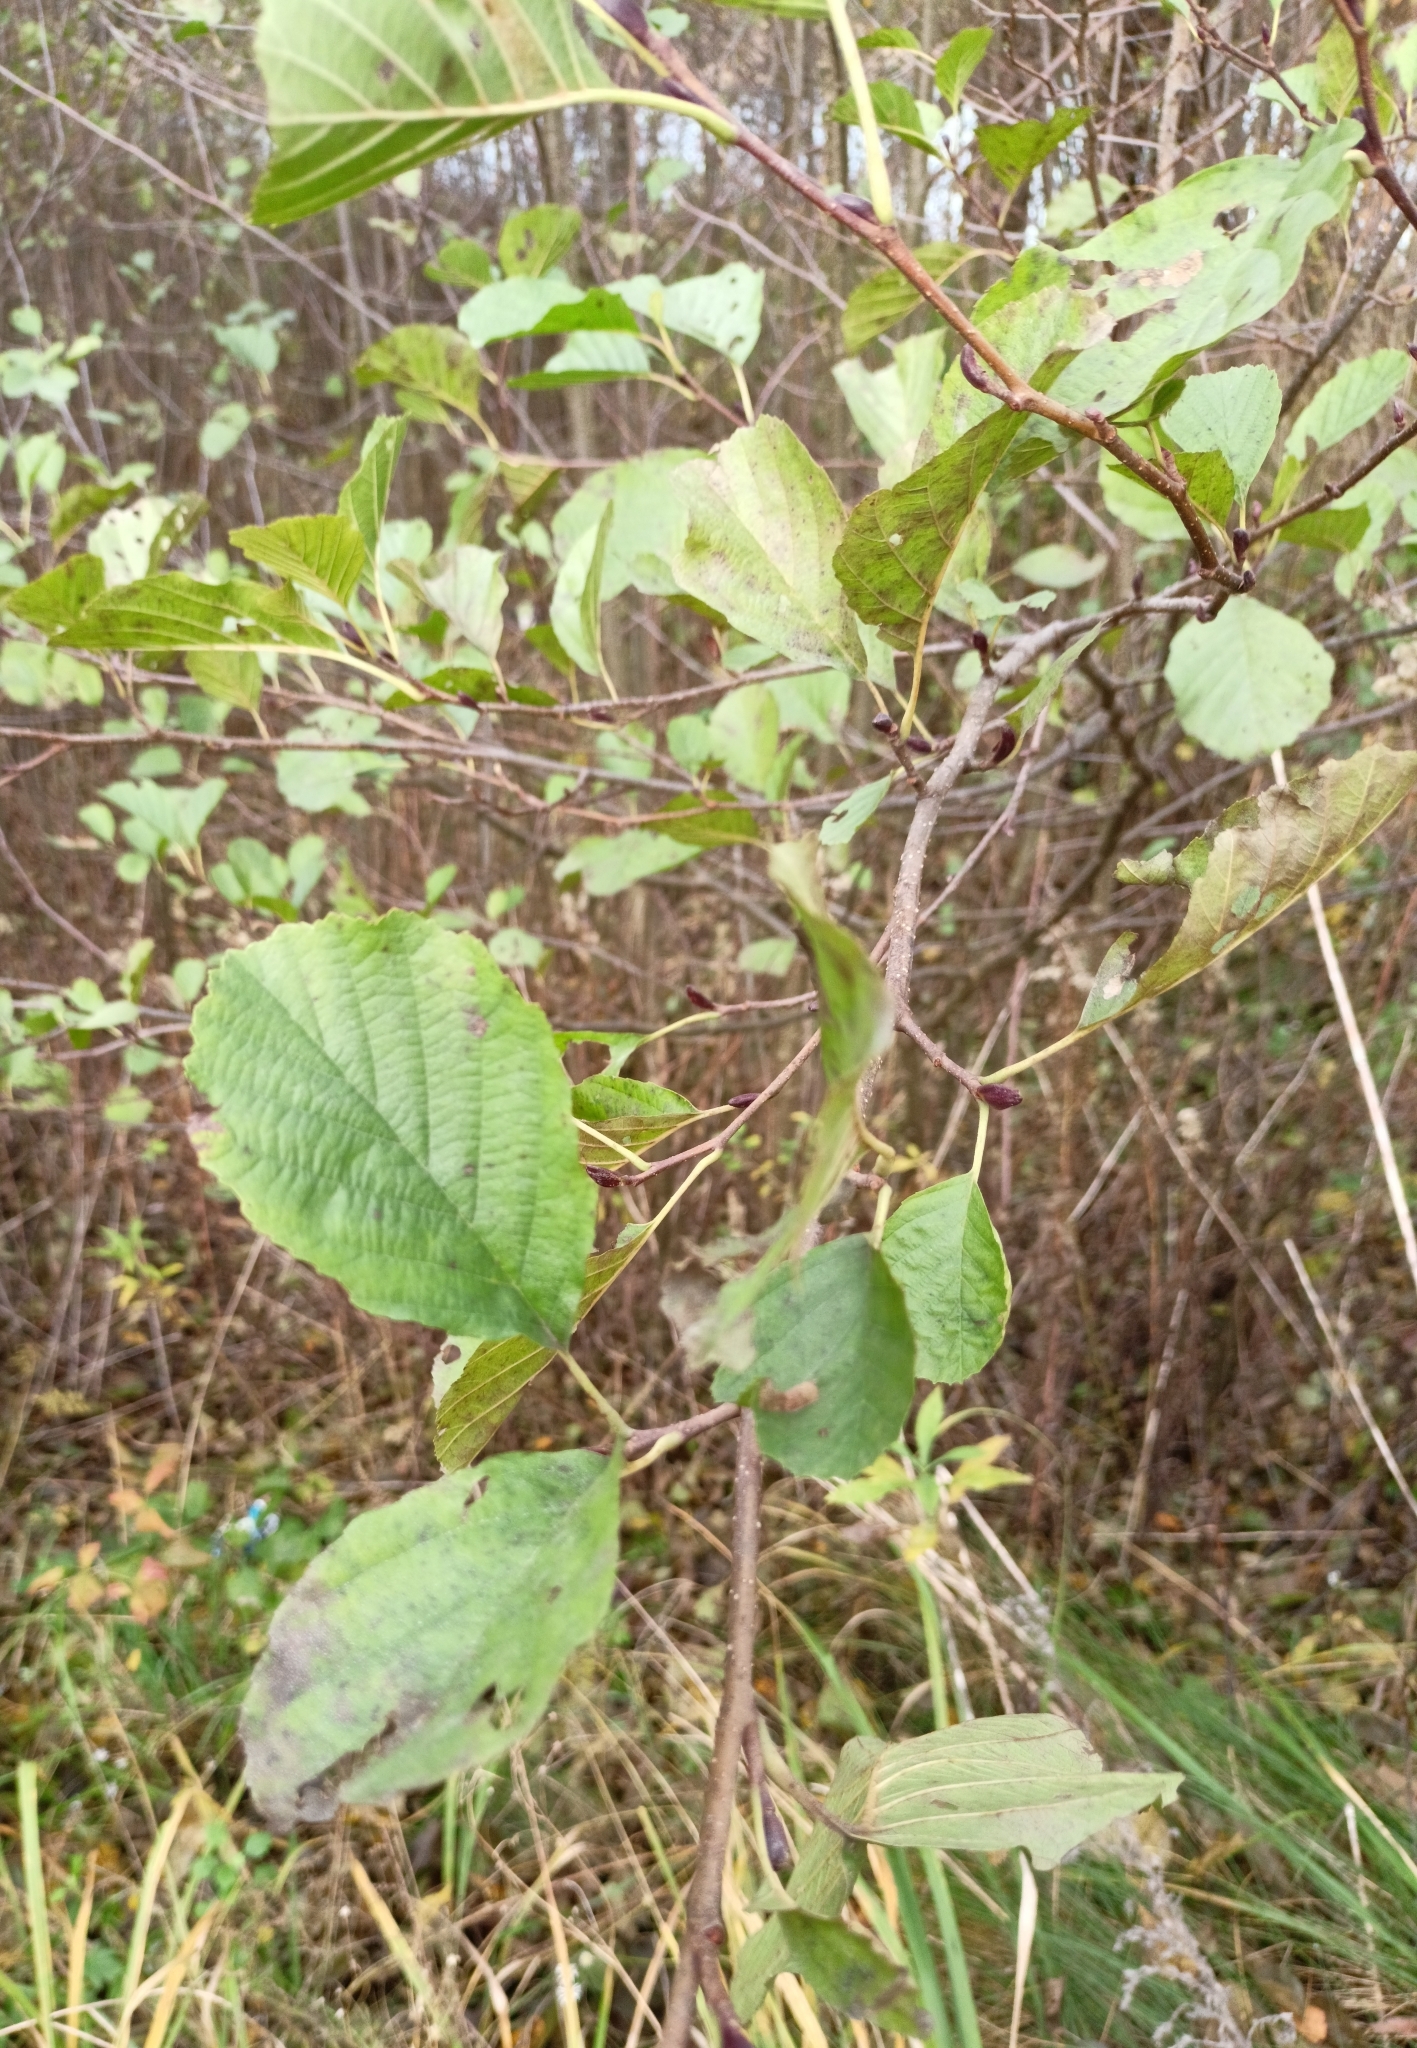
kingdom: Plantae
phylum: Tracheophyta
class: Magnoliopsida
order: Fagales
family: Betulaceae
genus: Alnus
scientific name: Alnus glutinosa
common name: Black alder
